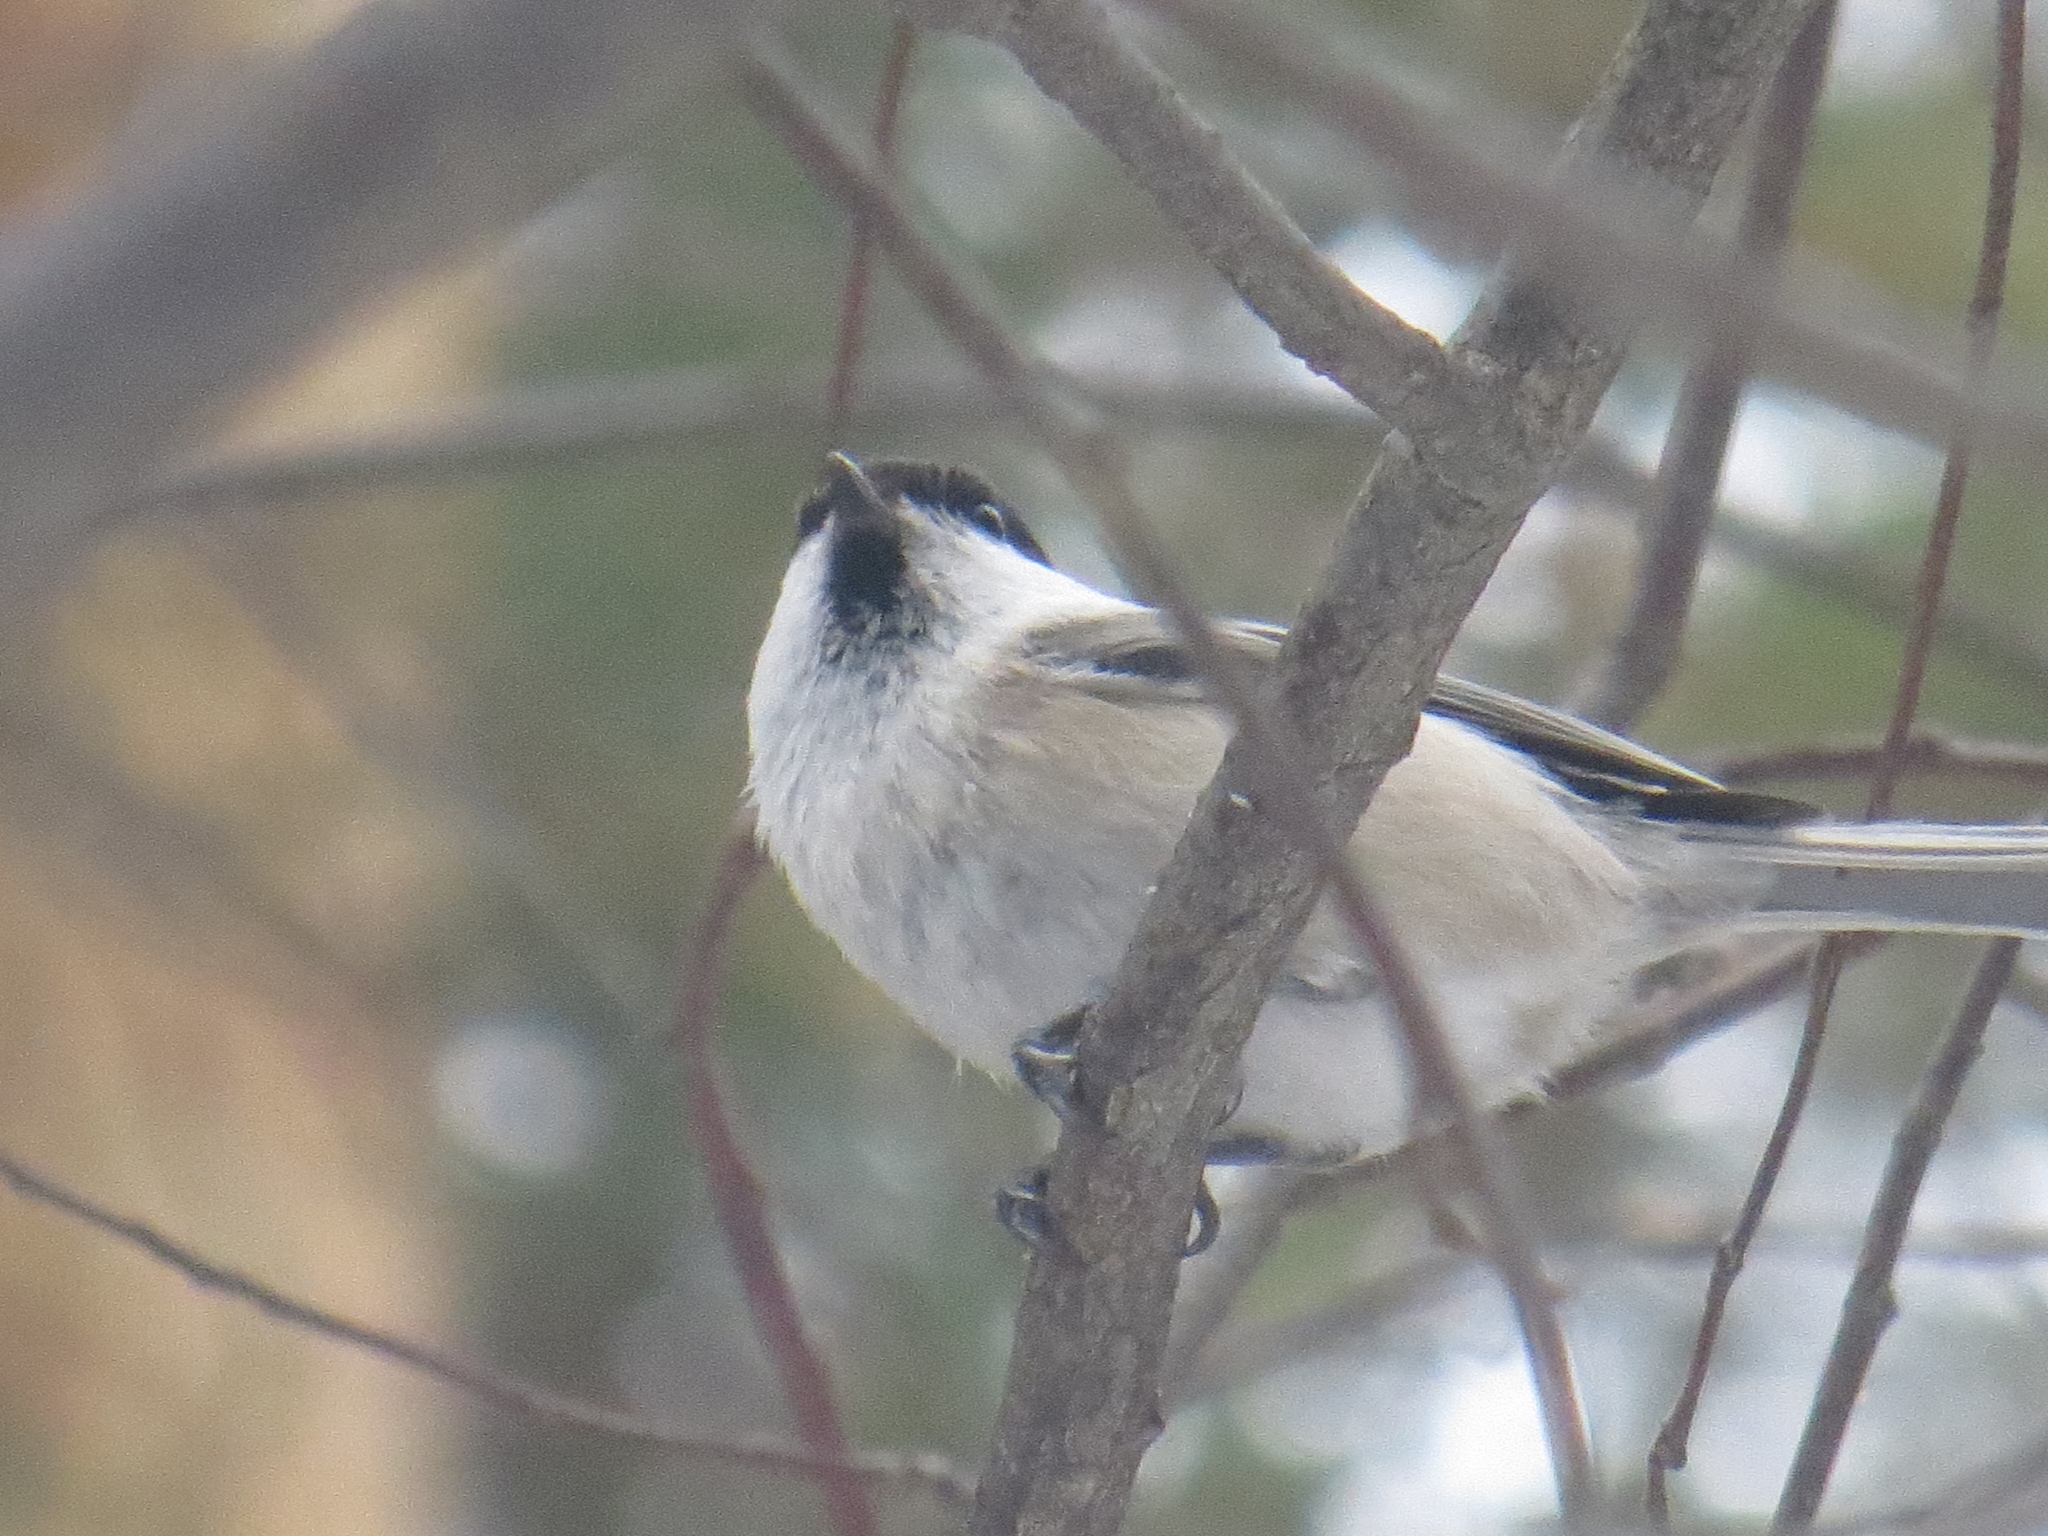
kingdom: Animalia
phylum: Chordata
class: Aves
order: Passeriformes
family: Paridae
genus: Poecile
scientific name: Poecile montanus
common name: Willow tit
